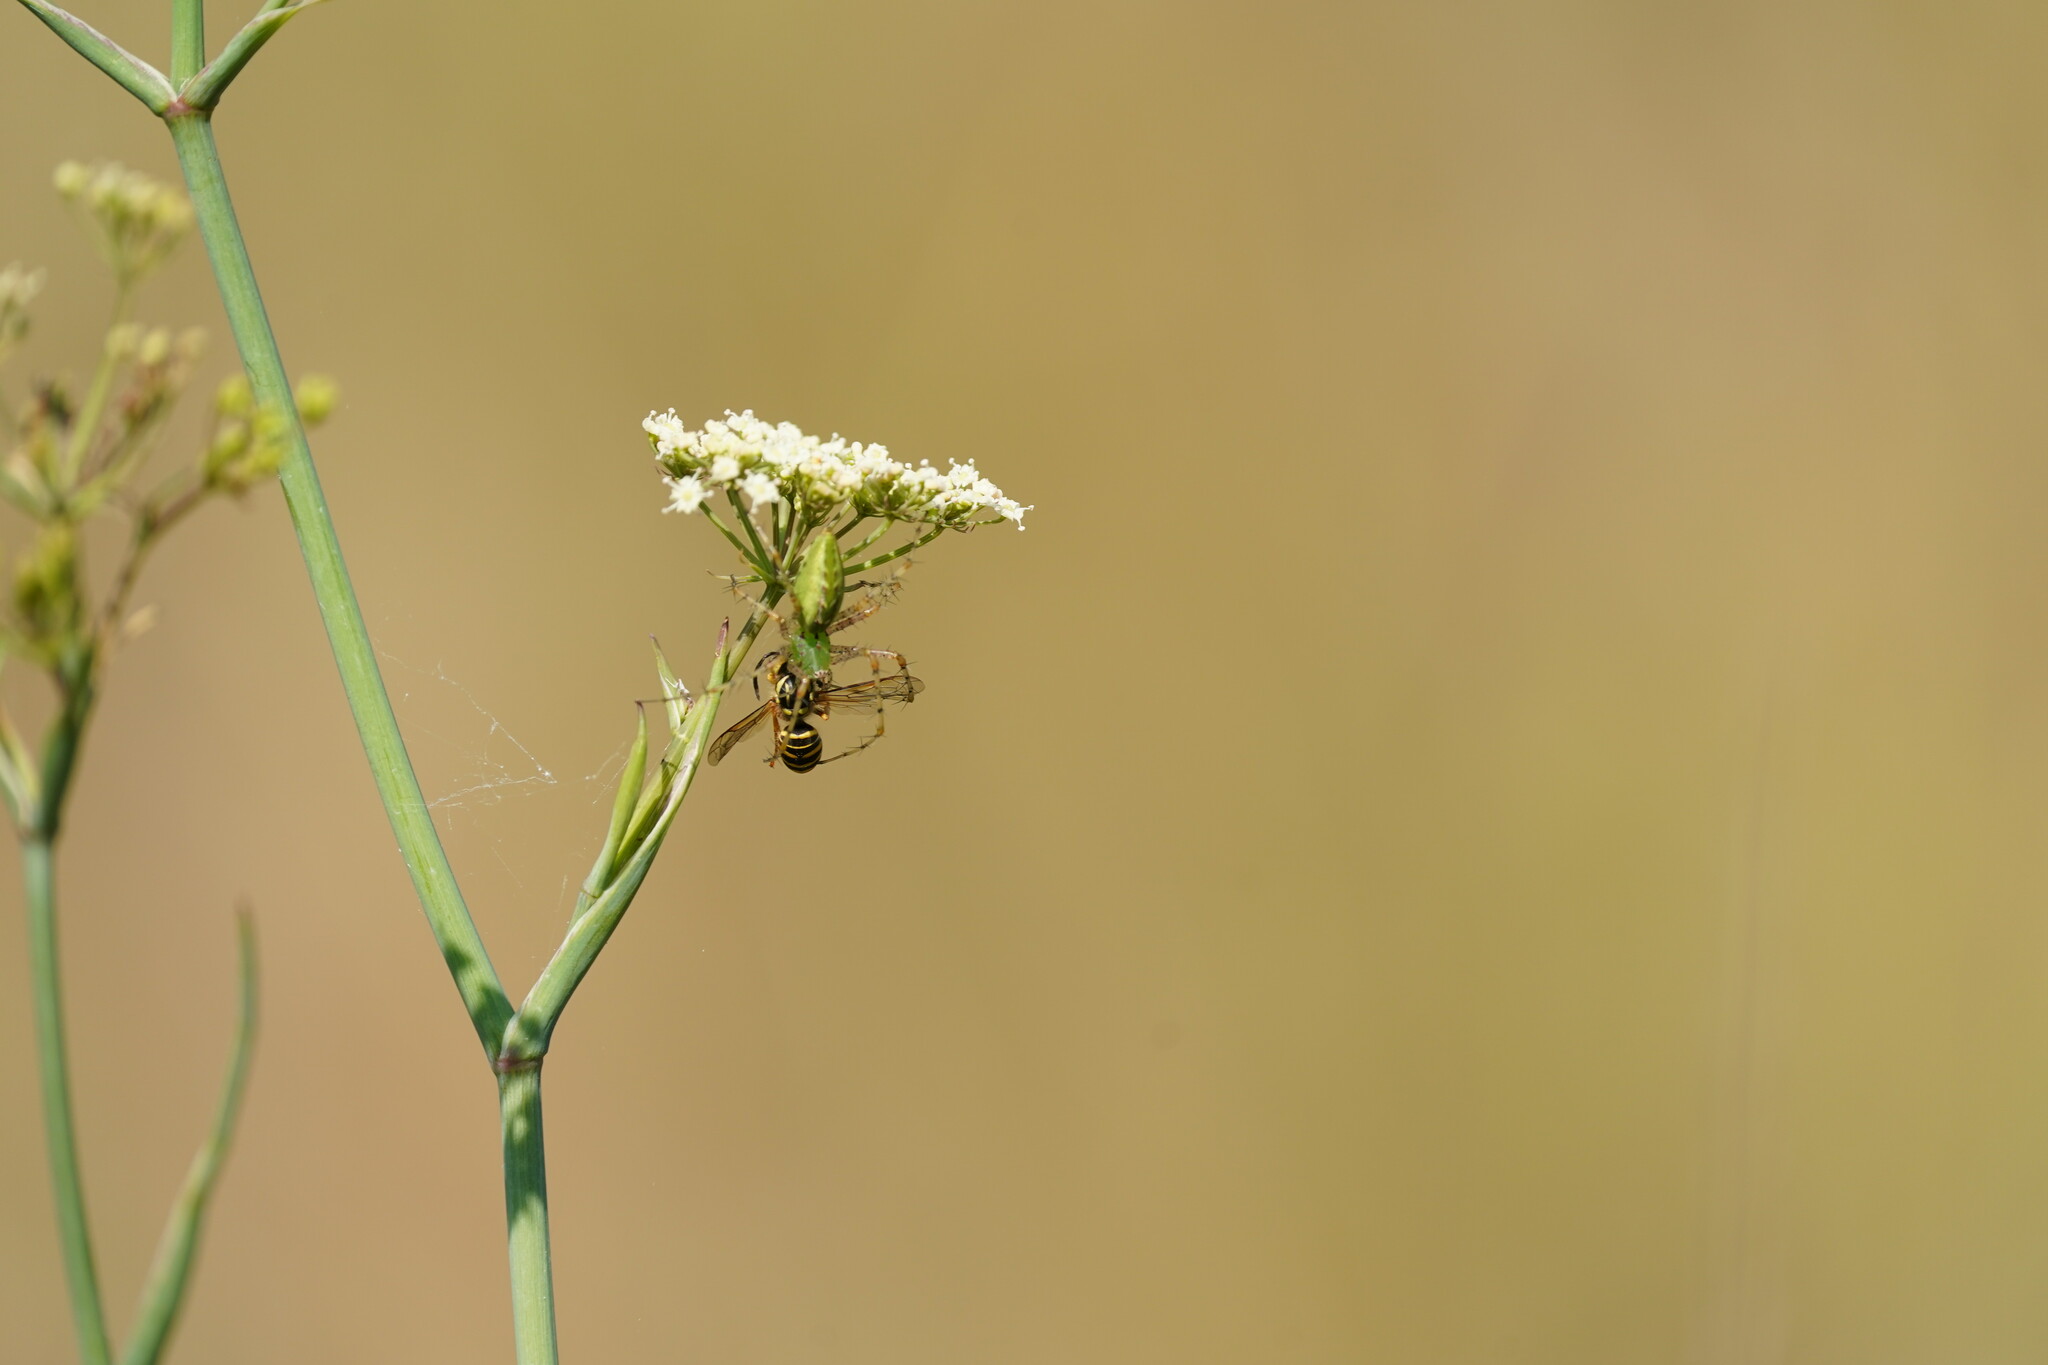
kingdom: Animalia
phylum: Arthropoda
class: Insecta
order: Hymenoptera
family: Vespidae
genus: Vespula
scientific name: Vespula squamosa
